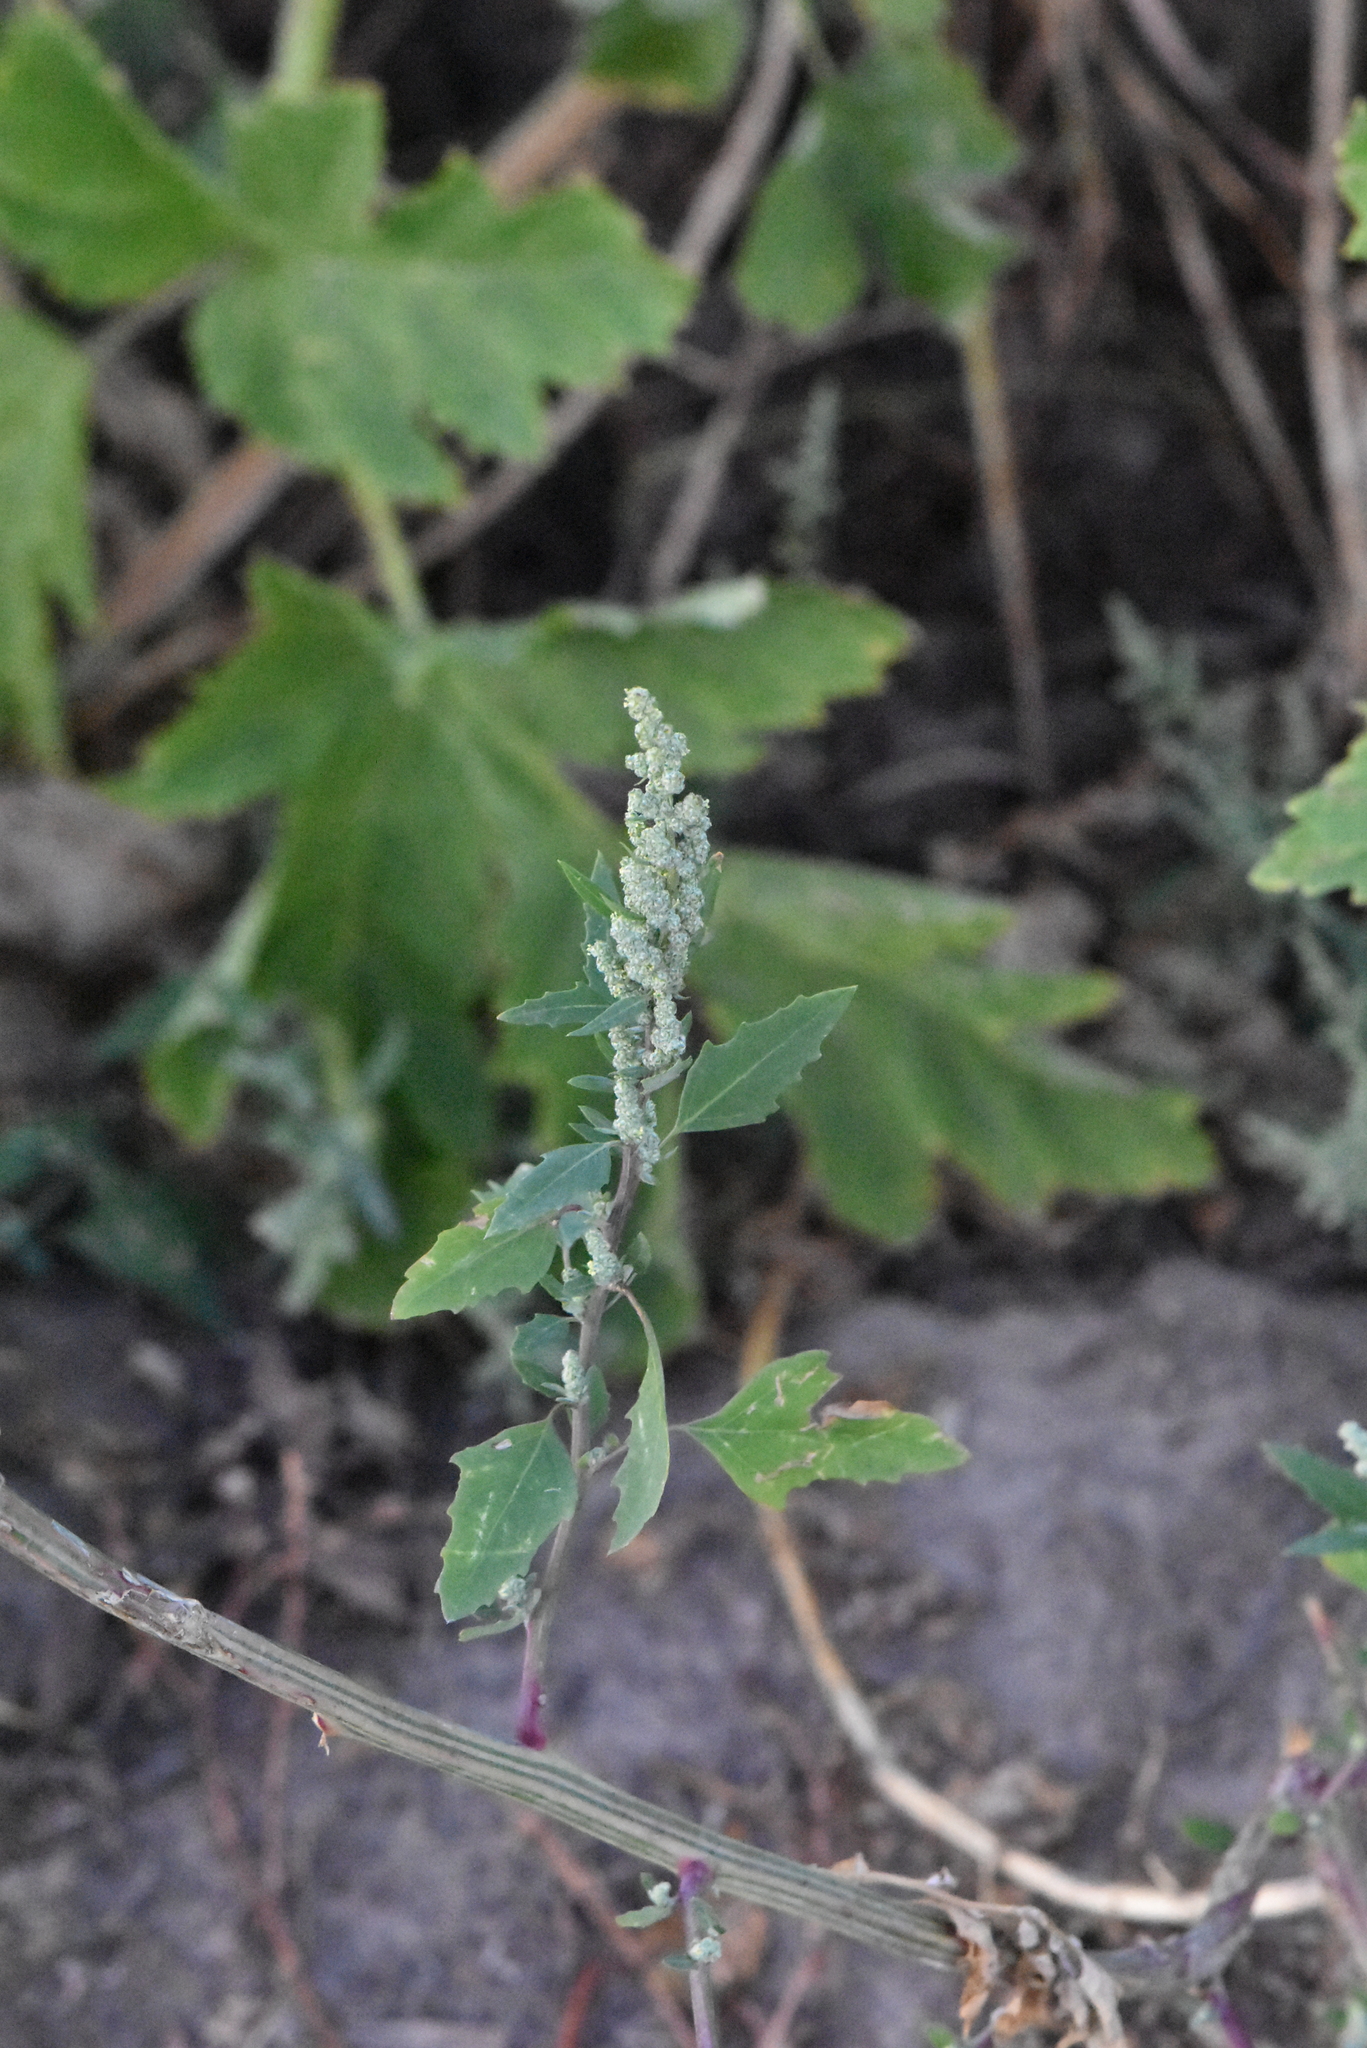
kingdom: Plantae
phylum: Tracheophyta
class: Magnoliopsida
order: Caryophyllales
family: Amaranthaceae
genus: Chenopodium
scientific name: Chenopodium album
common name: Fat-hen
